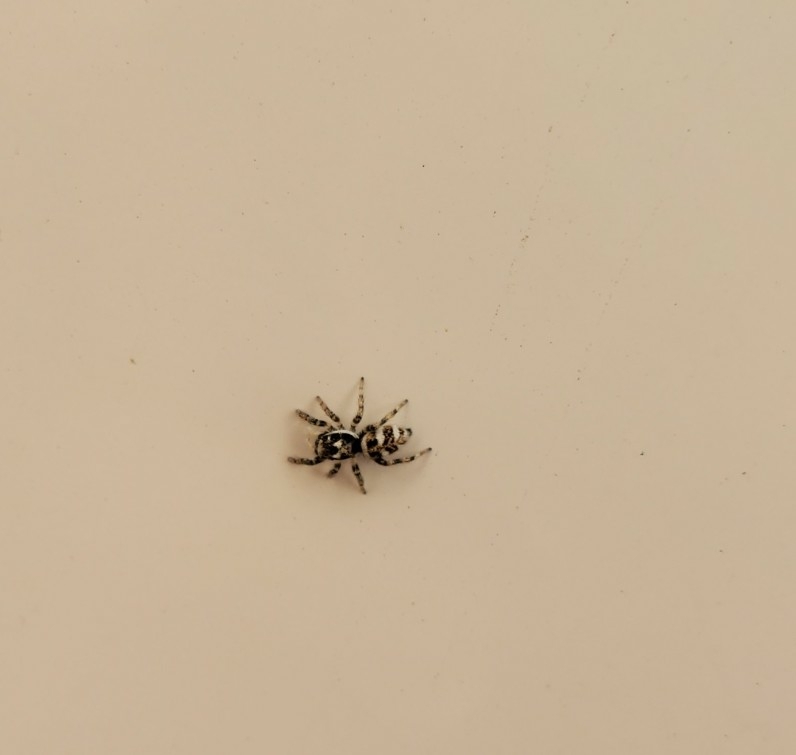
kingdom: Animalia
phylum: Arthropoda
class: Arachnida
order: Araneae
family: Salticidae
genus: Salticus
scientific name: Salticus scenicus
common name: Zebra jumper
